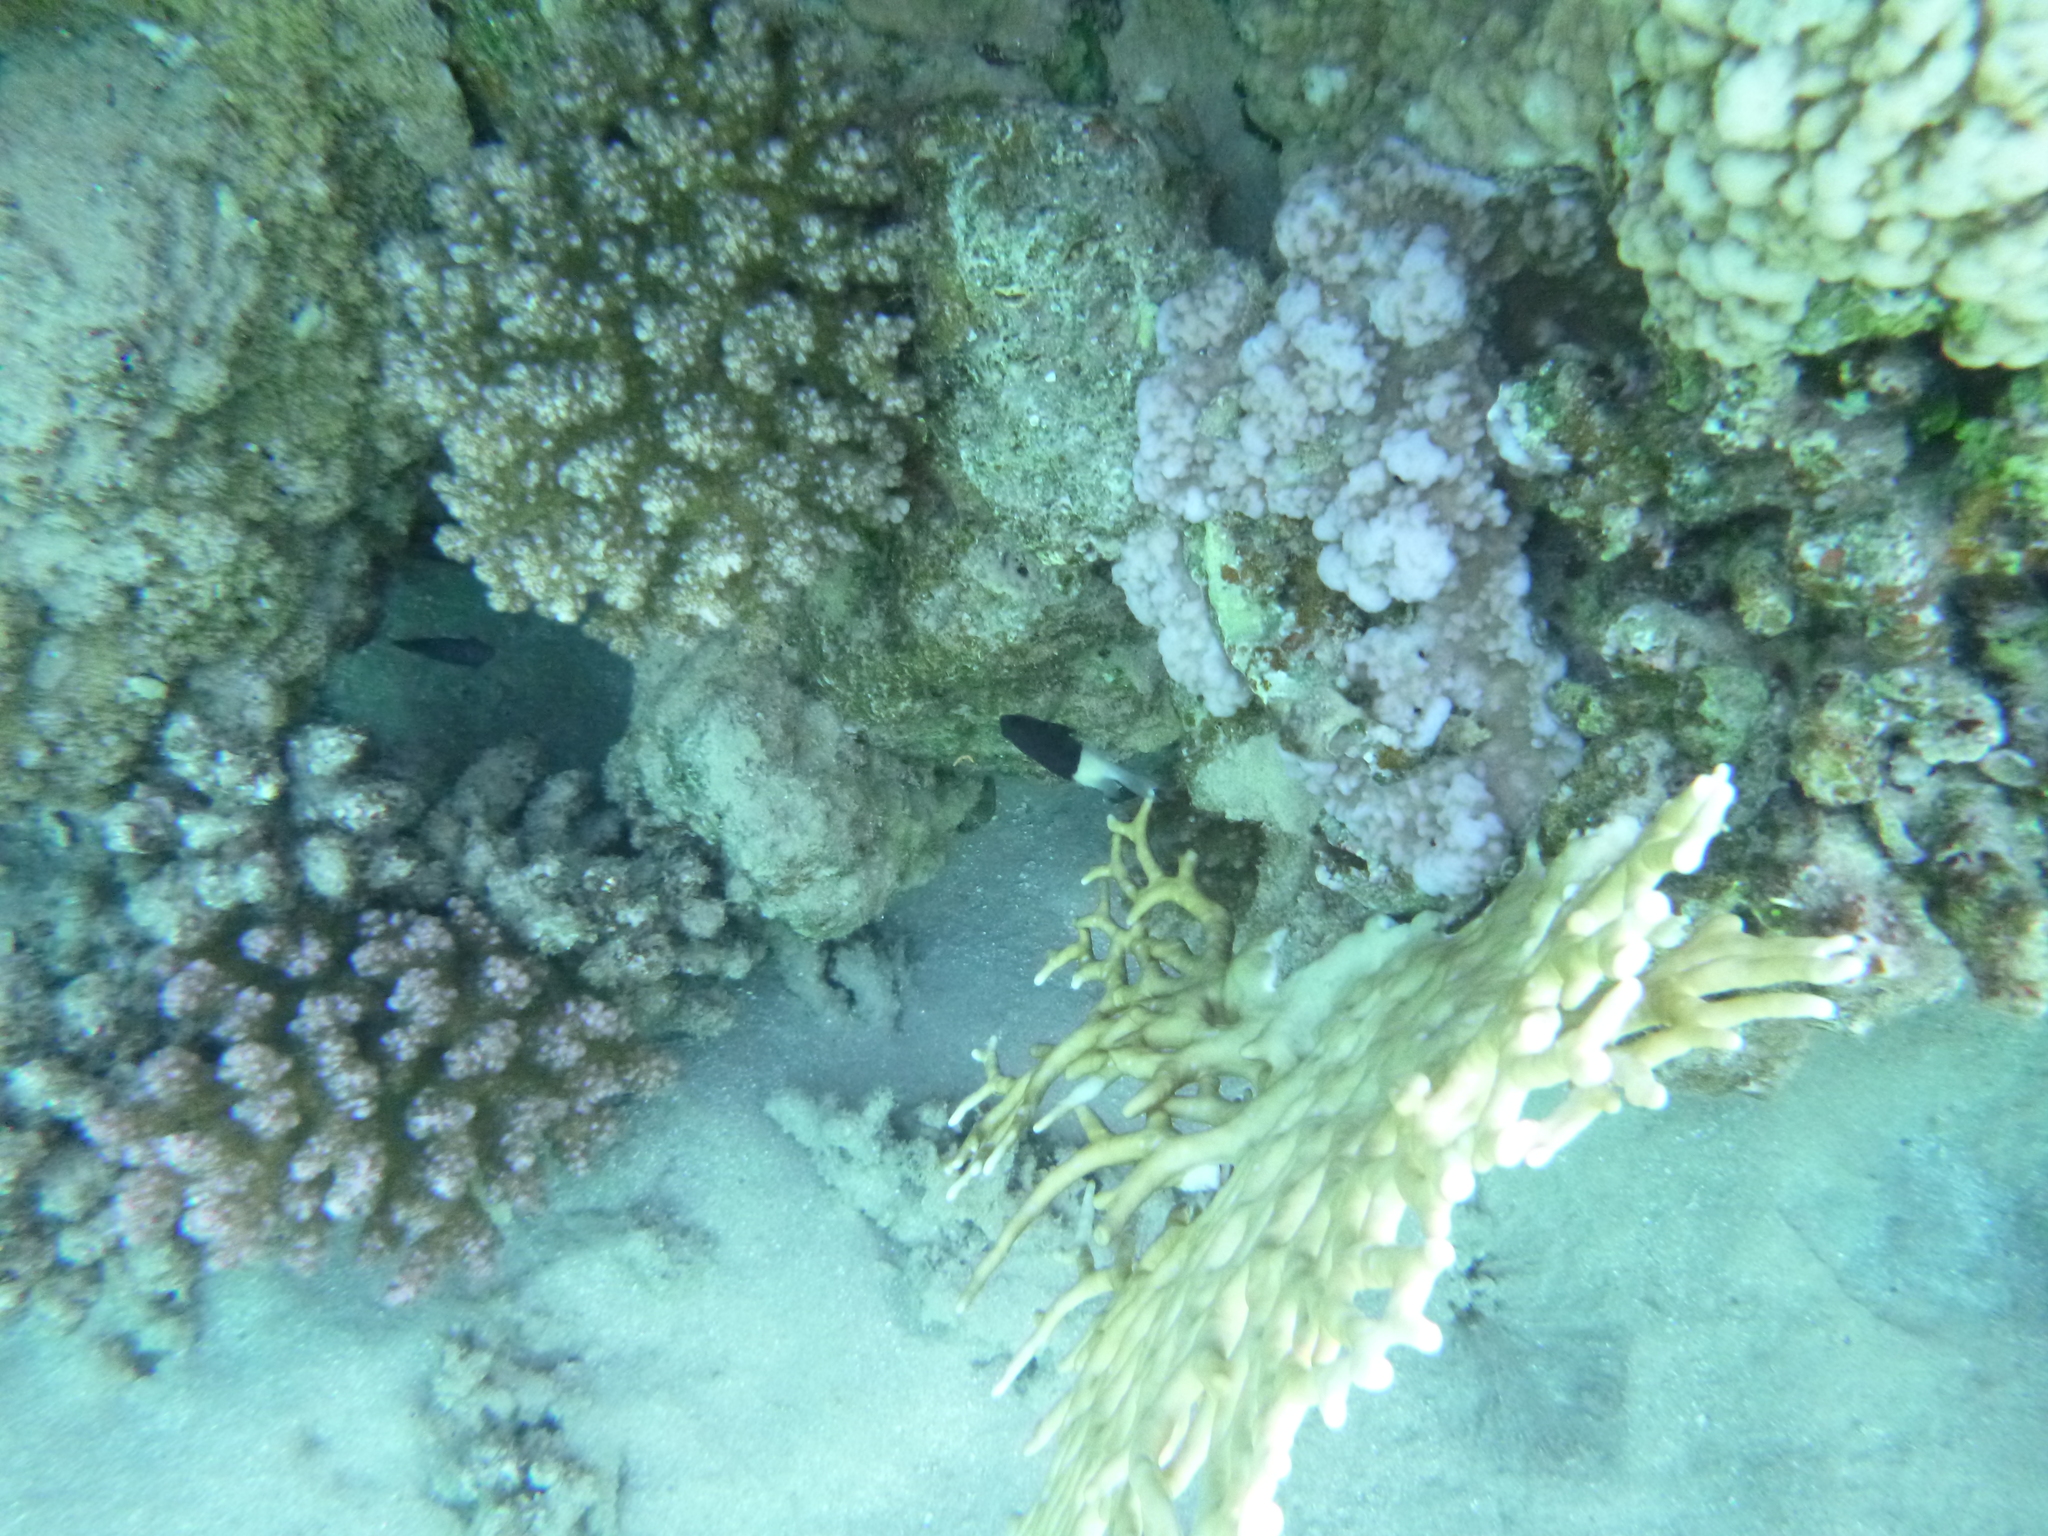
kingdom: Animalia
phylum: Chordata
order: Perciformes
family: Pomacentridae
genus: Chromis
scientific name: Chromis dimidiata
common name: Half-and-half chromis
